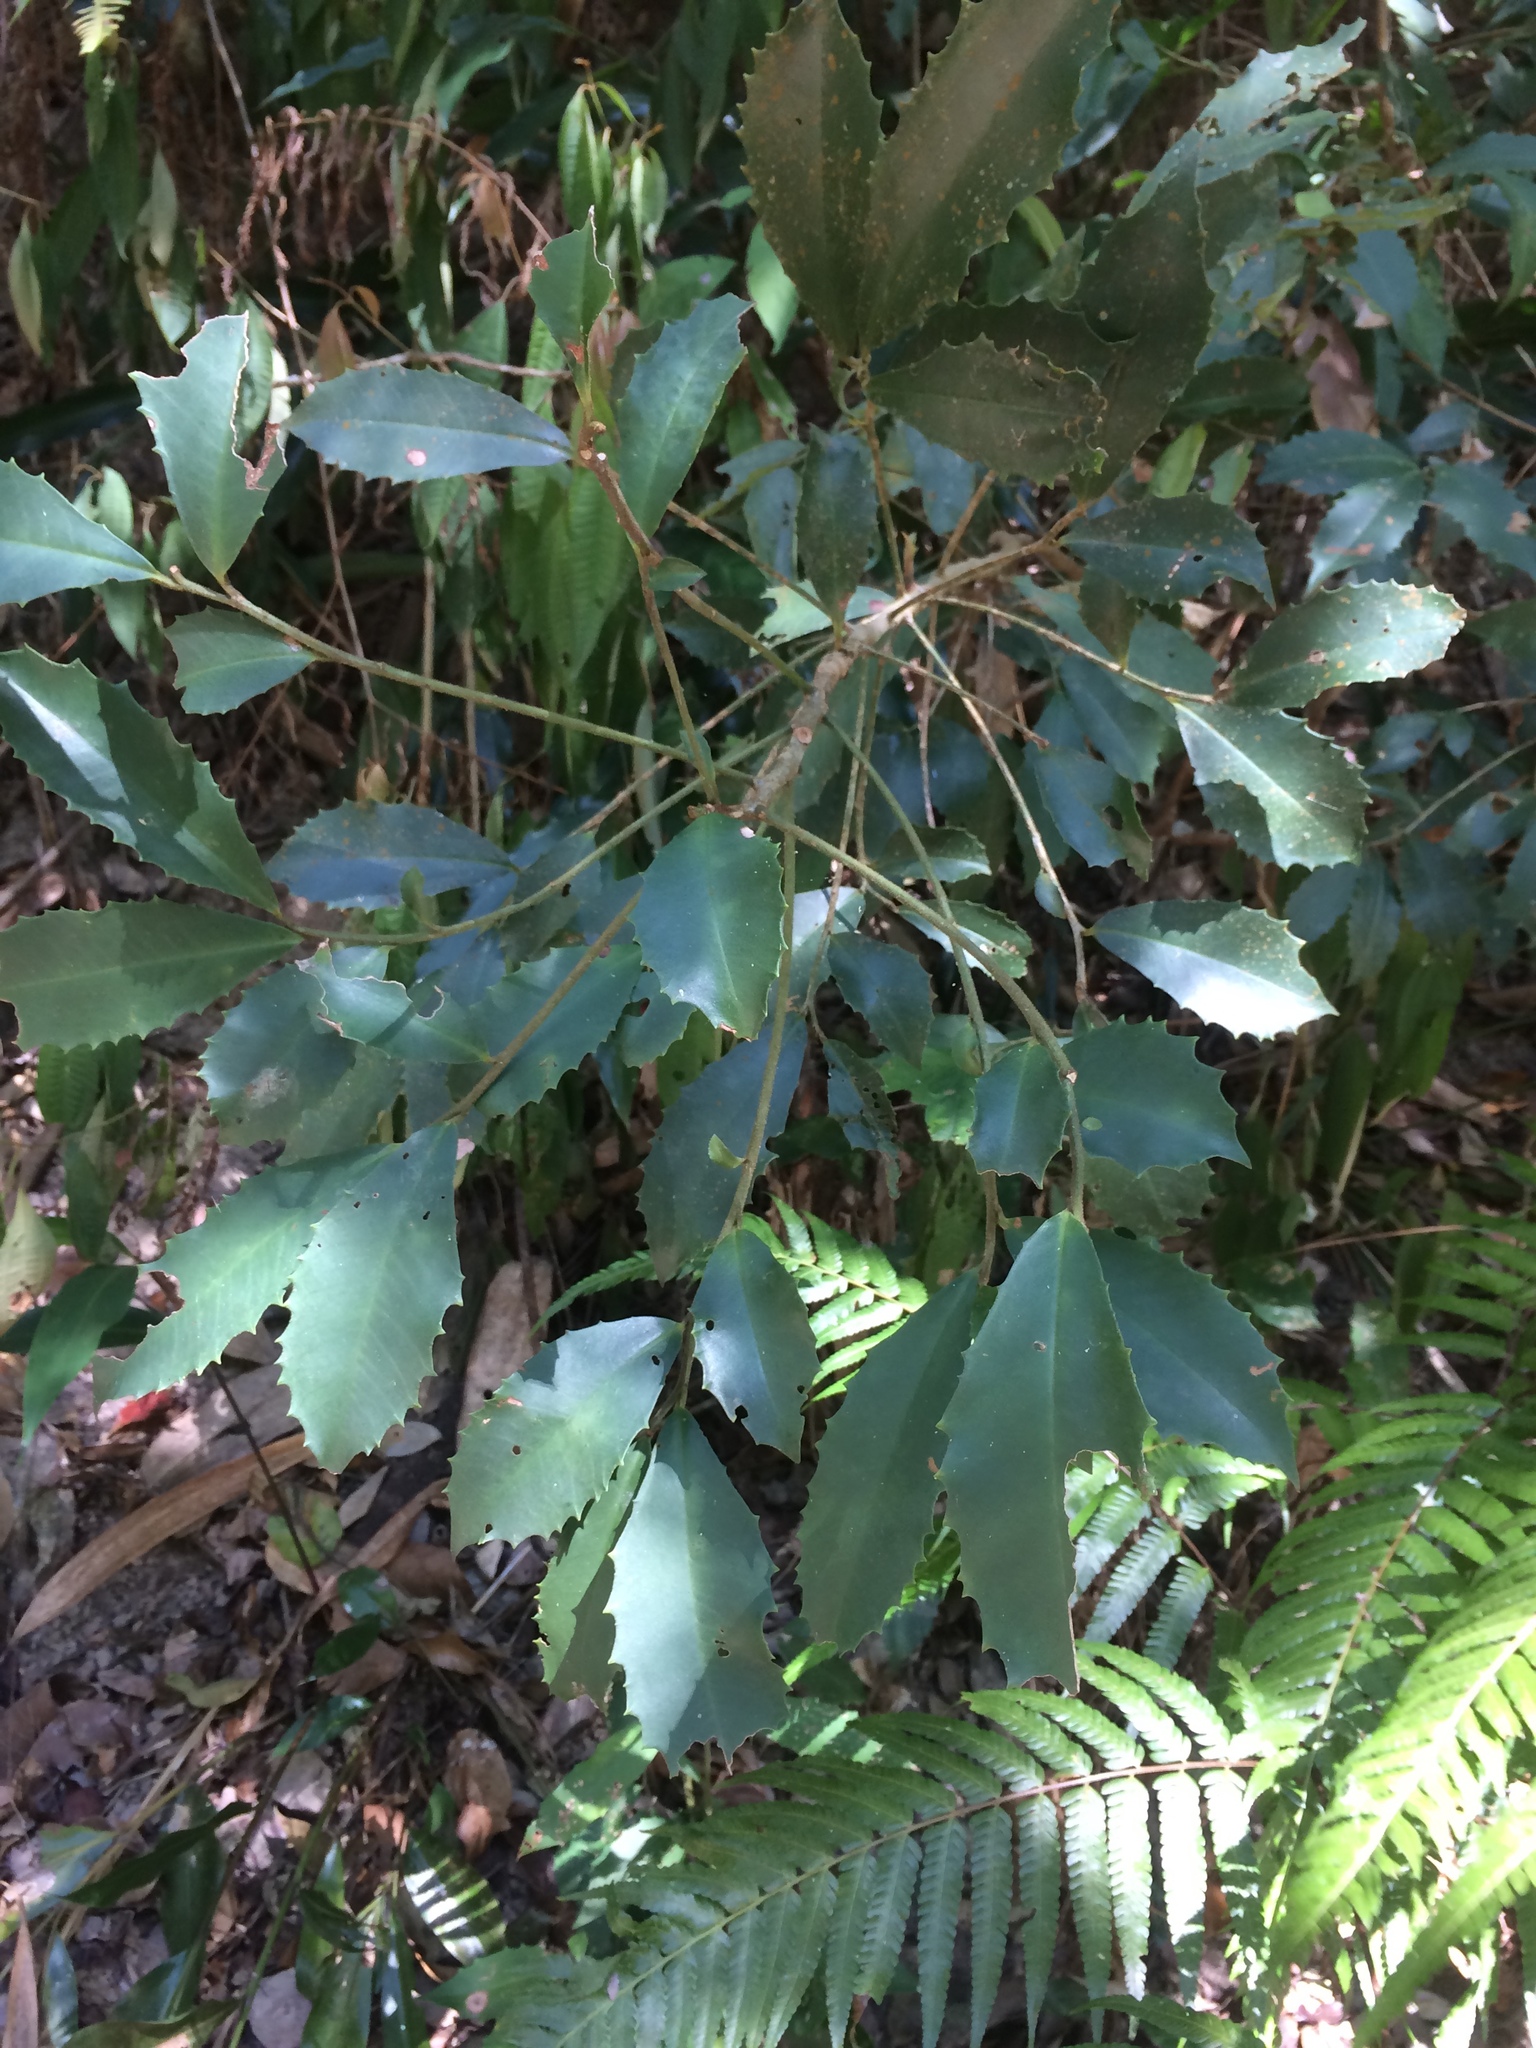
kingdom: Plantae
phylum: Tracheophyta
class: Magnoliopsida
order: Ericales
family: Primulaceae
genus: Ardisia
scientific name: Ardisia cornudentata
